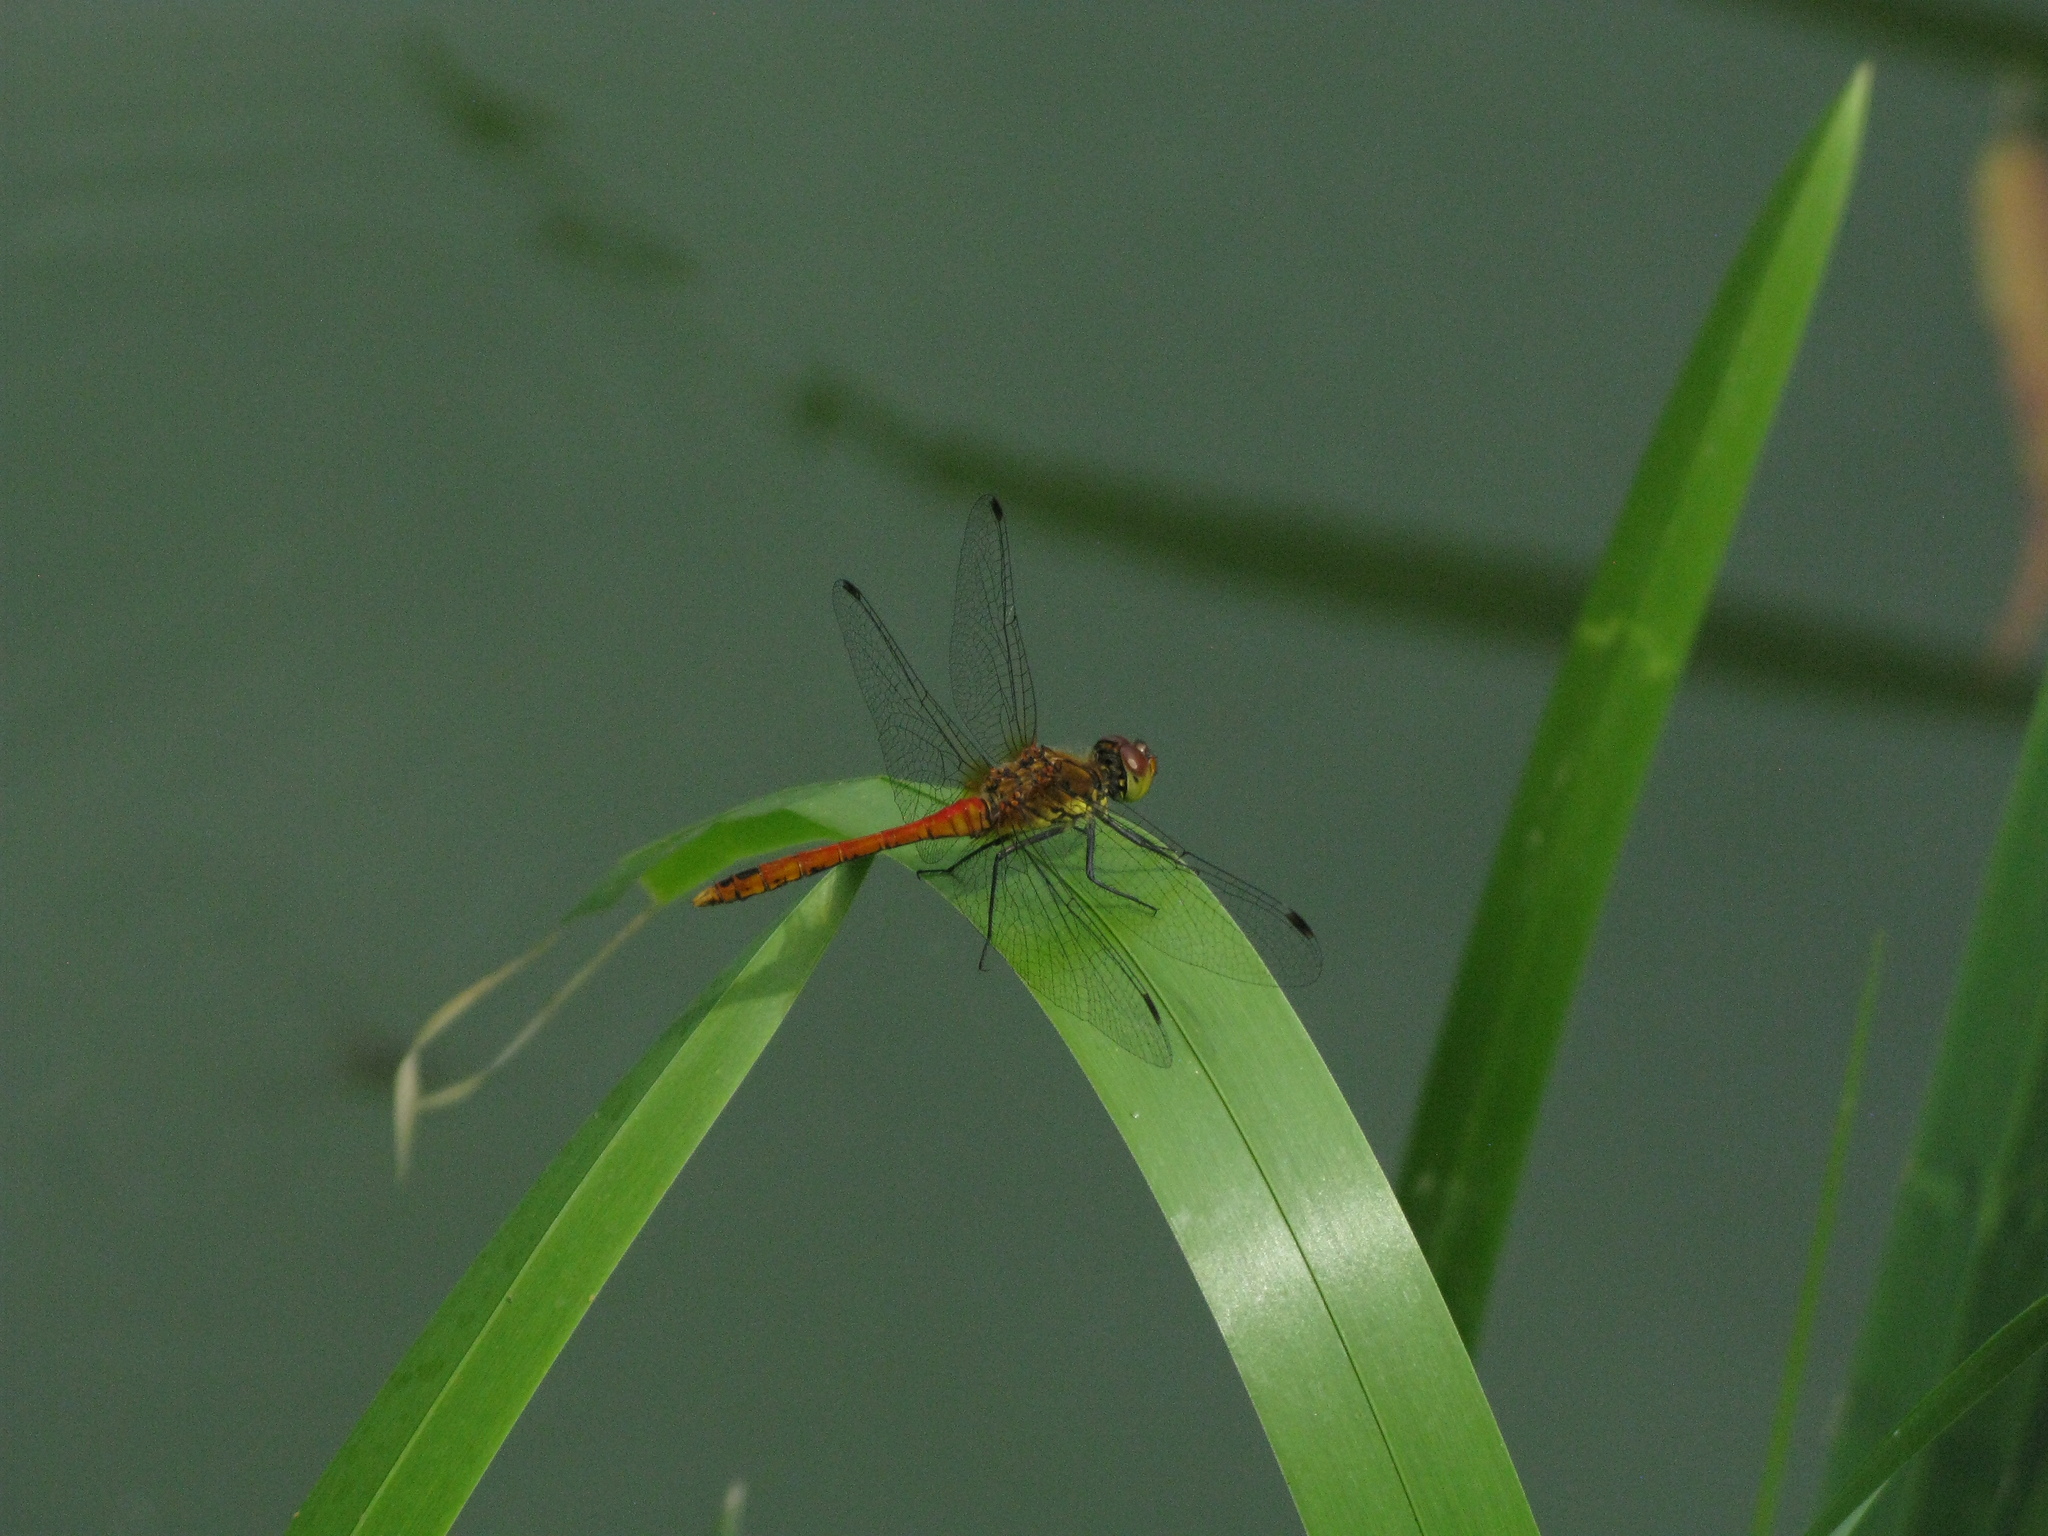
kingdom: Animalia
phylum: Arthropoda
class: Insecta
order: Odonata
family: Libellulidae
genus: Sympetrum
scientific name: Sympetrum sanguineum
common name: Ruddy darter
